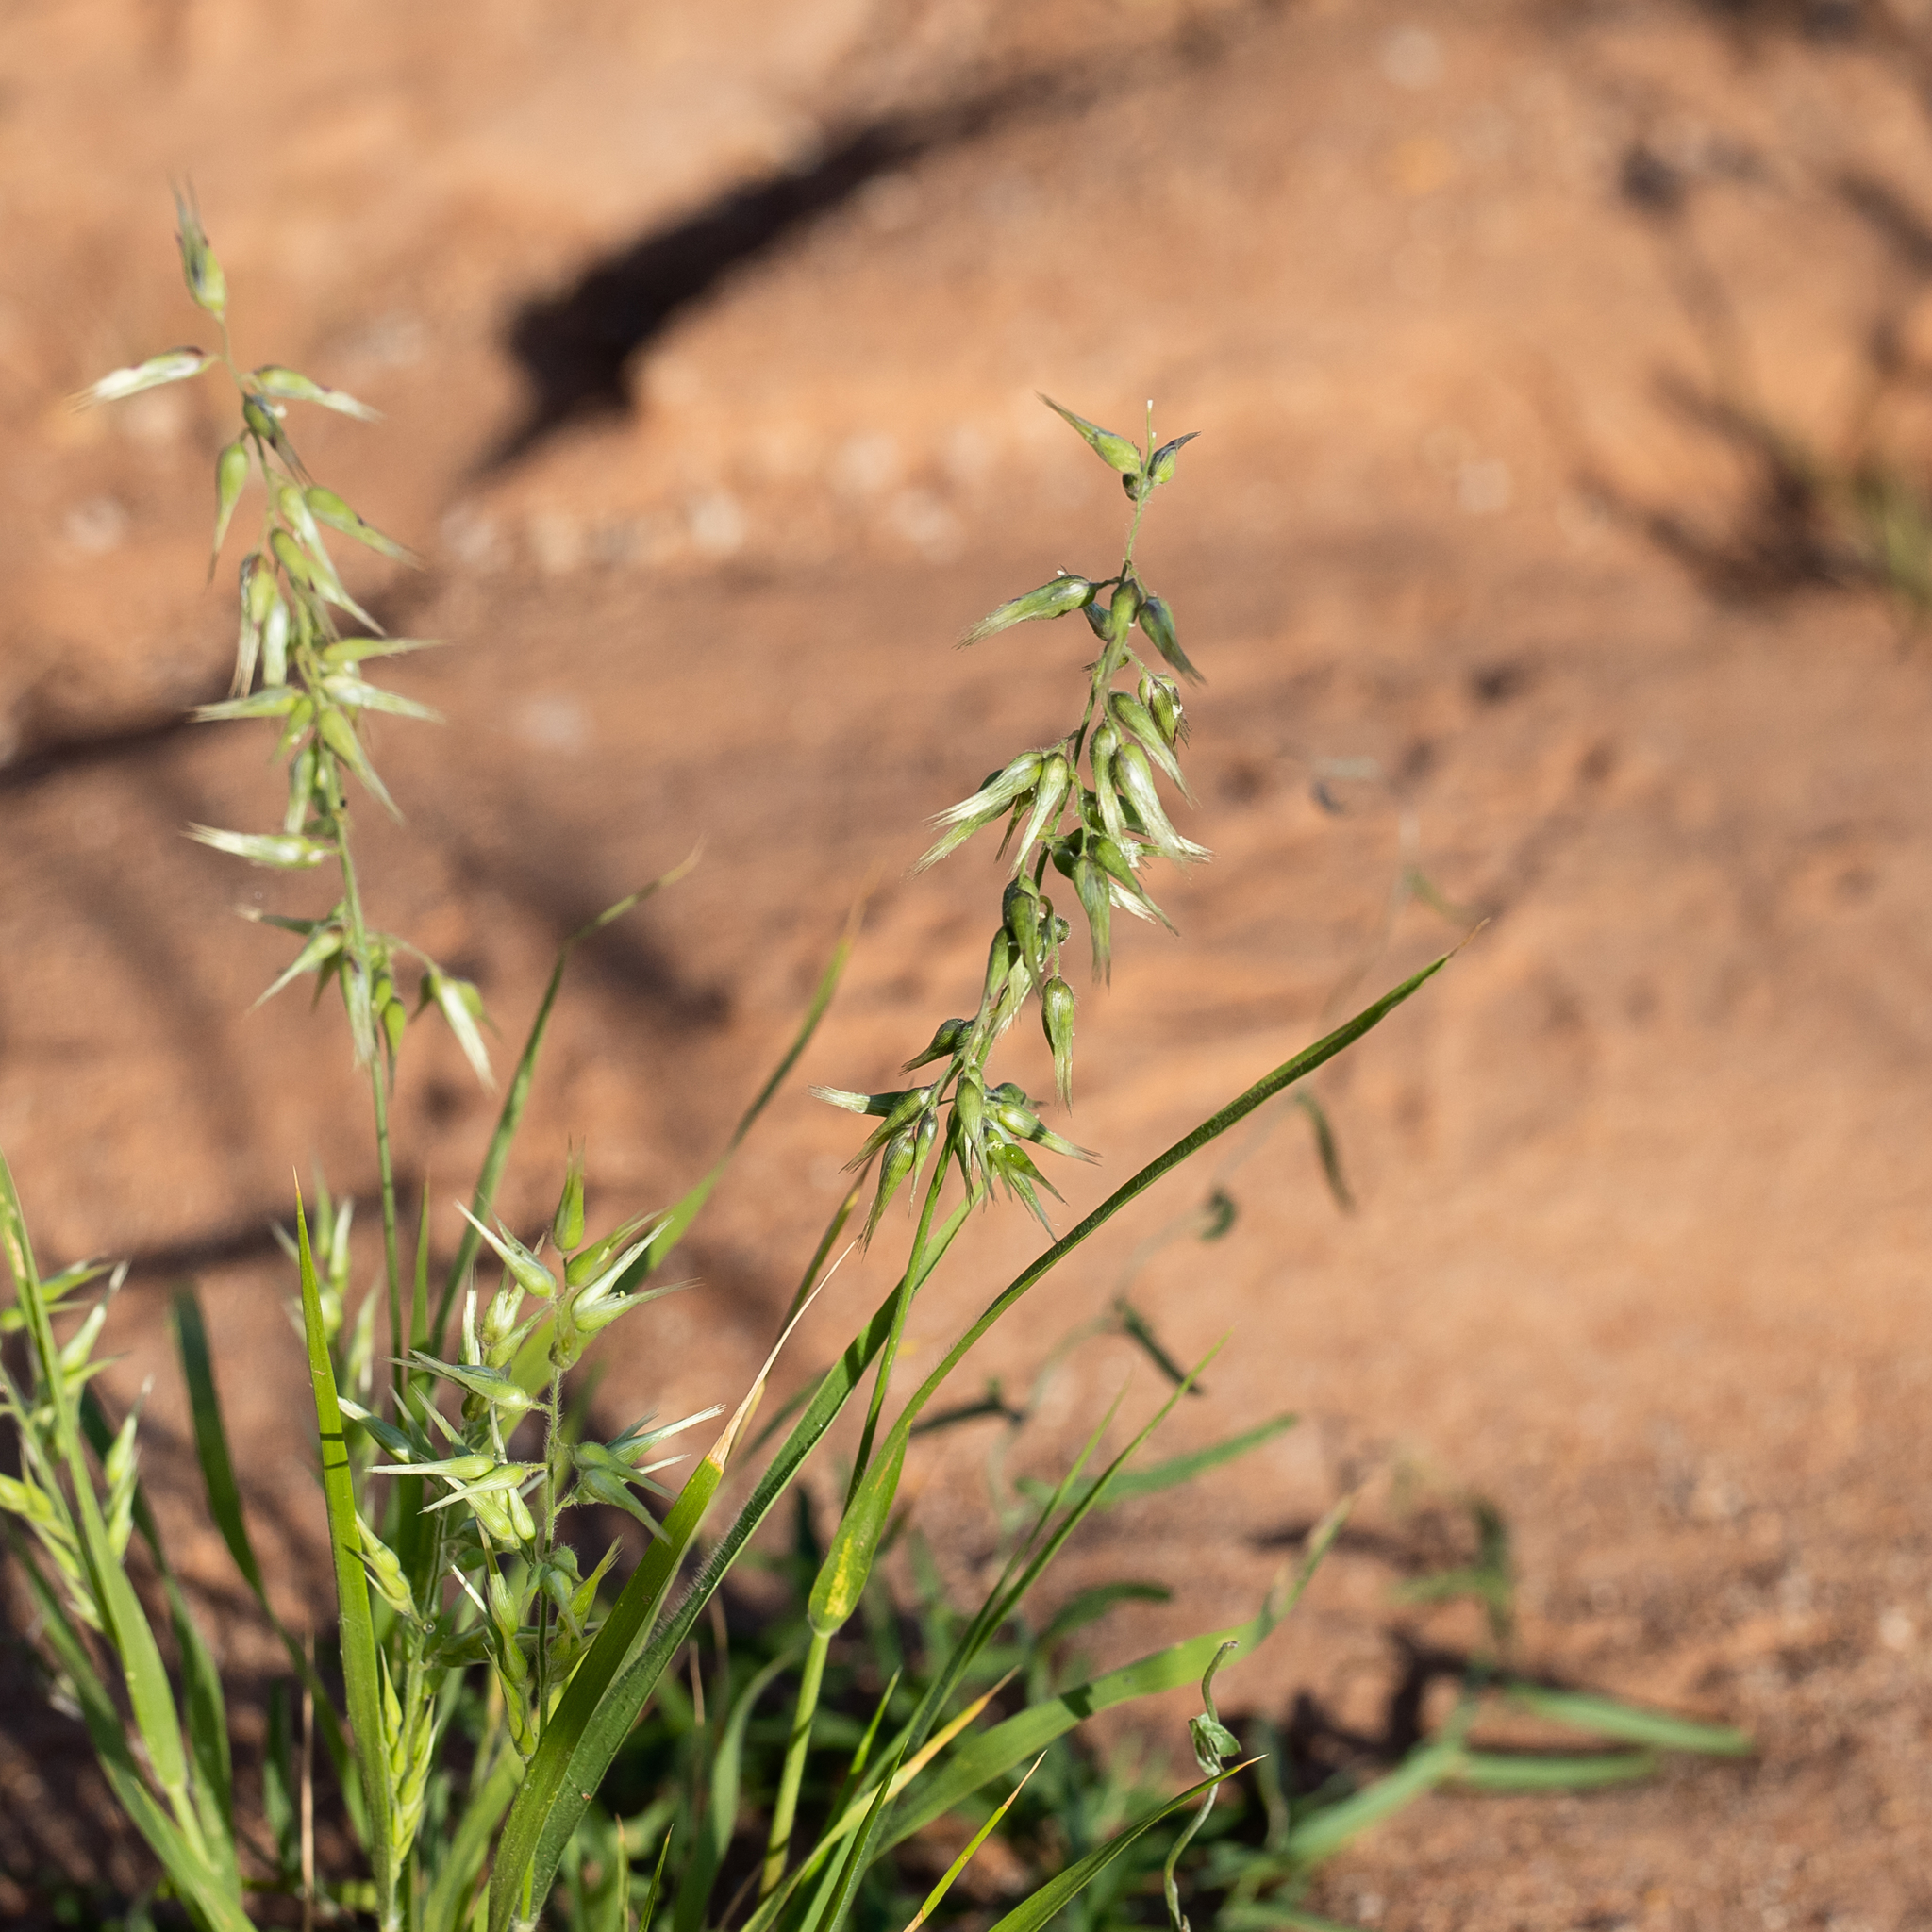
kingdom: Plantae
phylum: Tracheophyta
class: Liliopsida
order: Poales
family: Poaceae
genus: Enneapogon
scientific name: Enneapogon avenaceus
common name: Hairy oat grass
